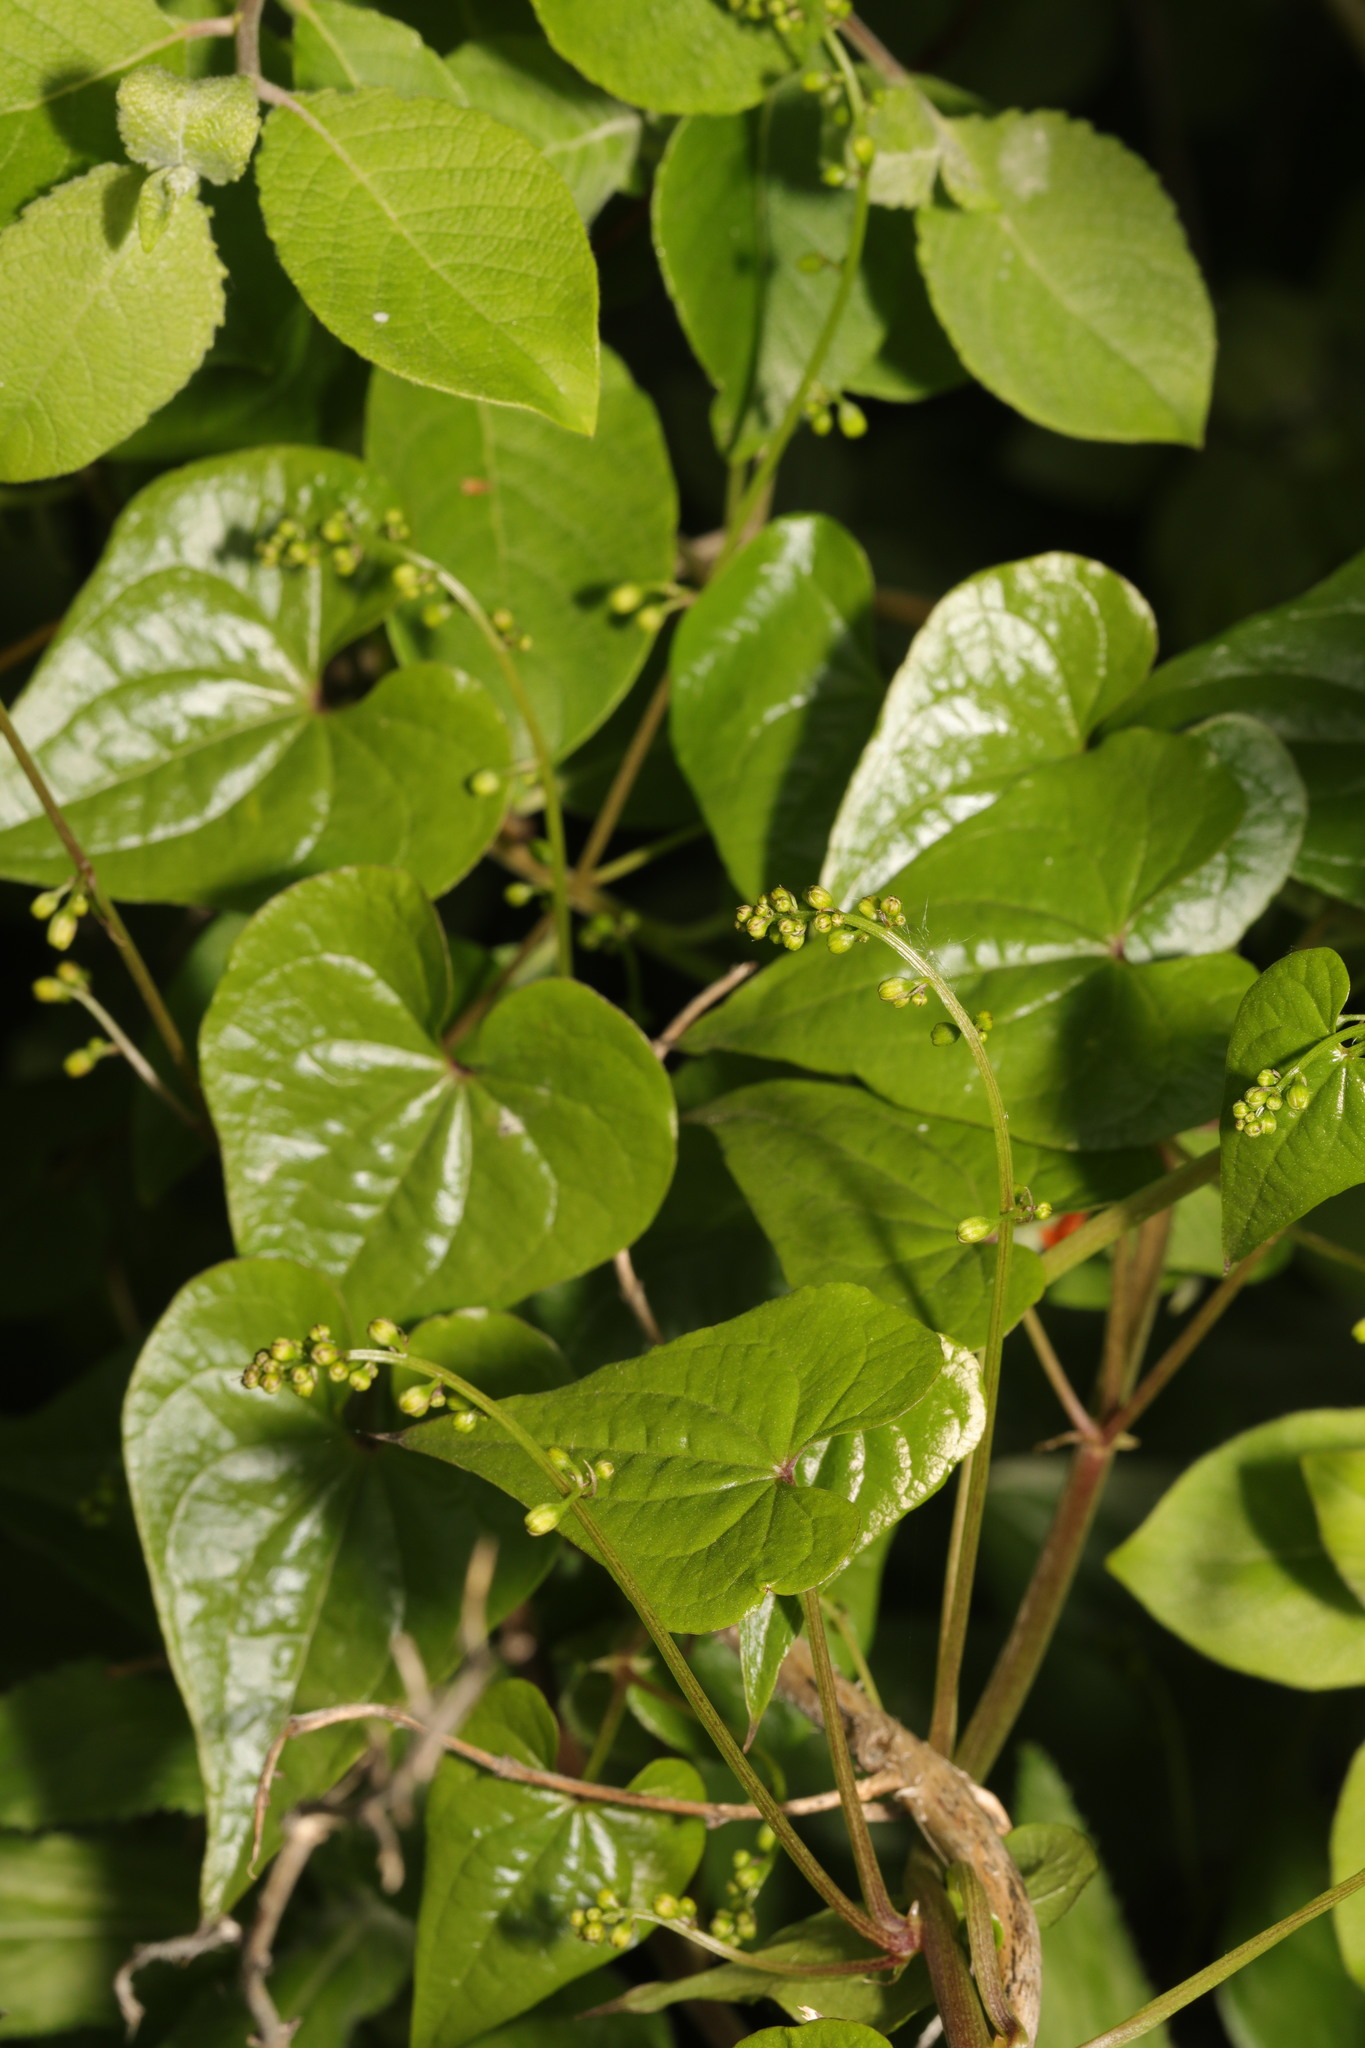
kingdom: Plantae
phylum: Tracheophyta
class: Liliopsida
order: Dioscoreales
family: Dioscoreaceae
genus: Dioscorea
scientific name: Dioscorea communis
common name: Black-bindweed
